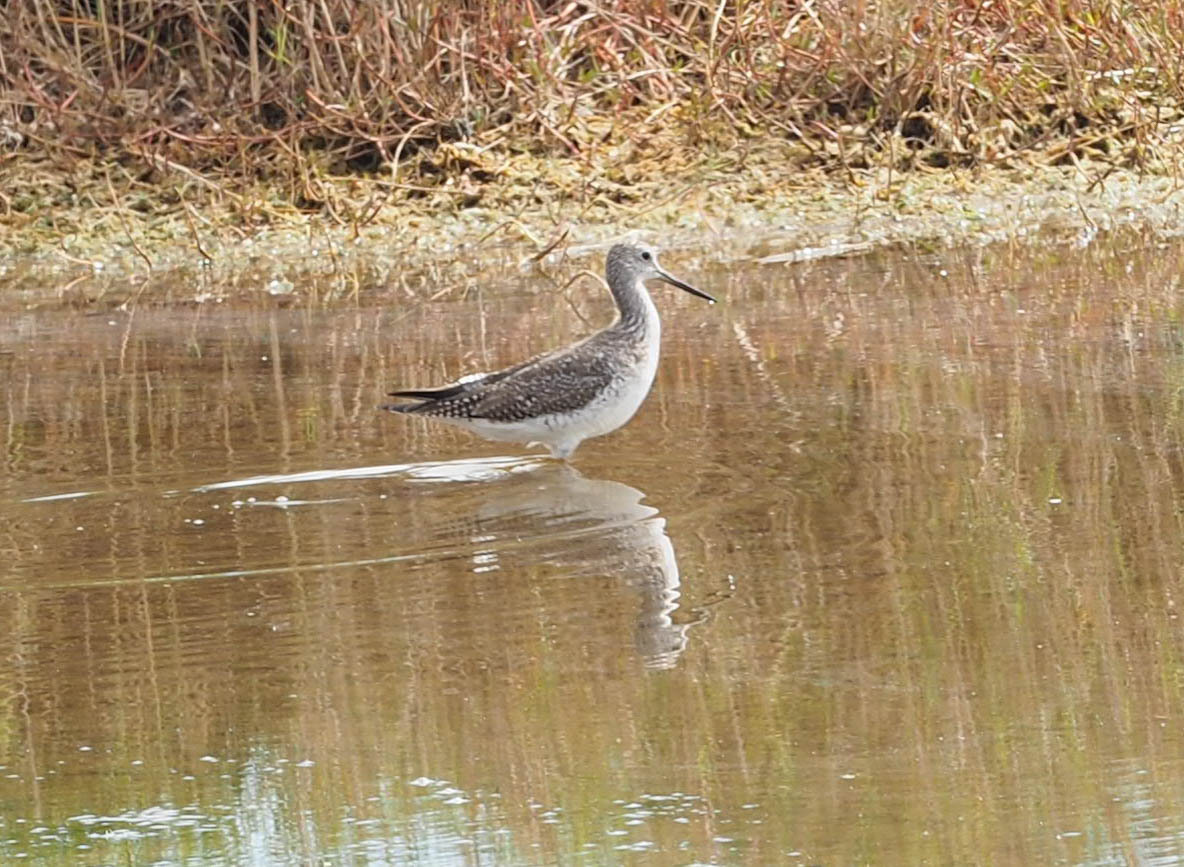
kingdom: Animalia
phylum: Chordata
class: Aves
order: Charadriiformes
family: Scolopacidae
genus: Tringa
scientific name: Tringa melanoleuca
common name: Greater yellowlegs
